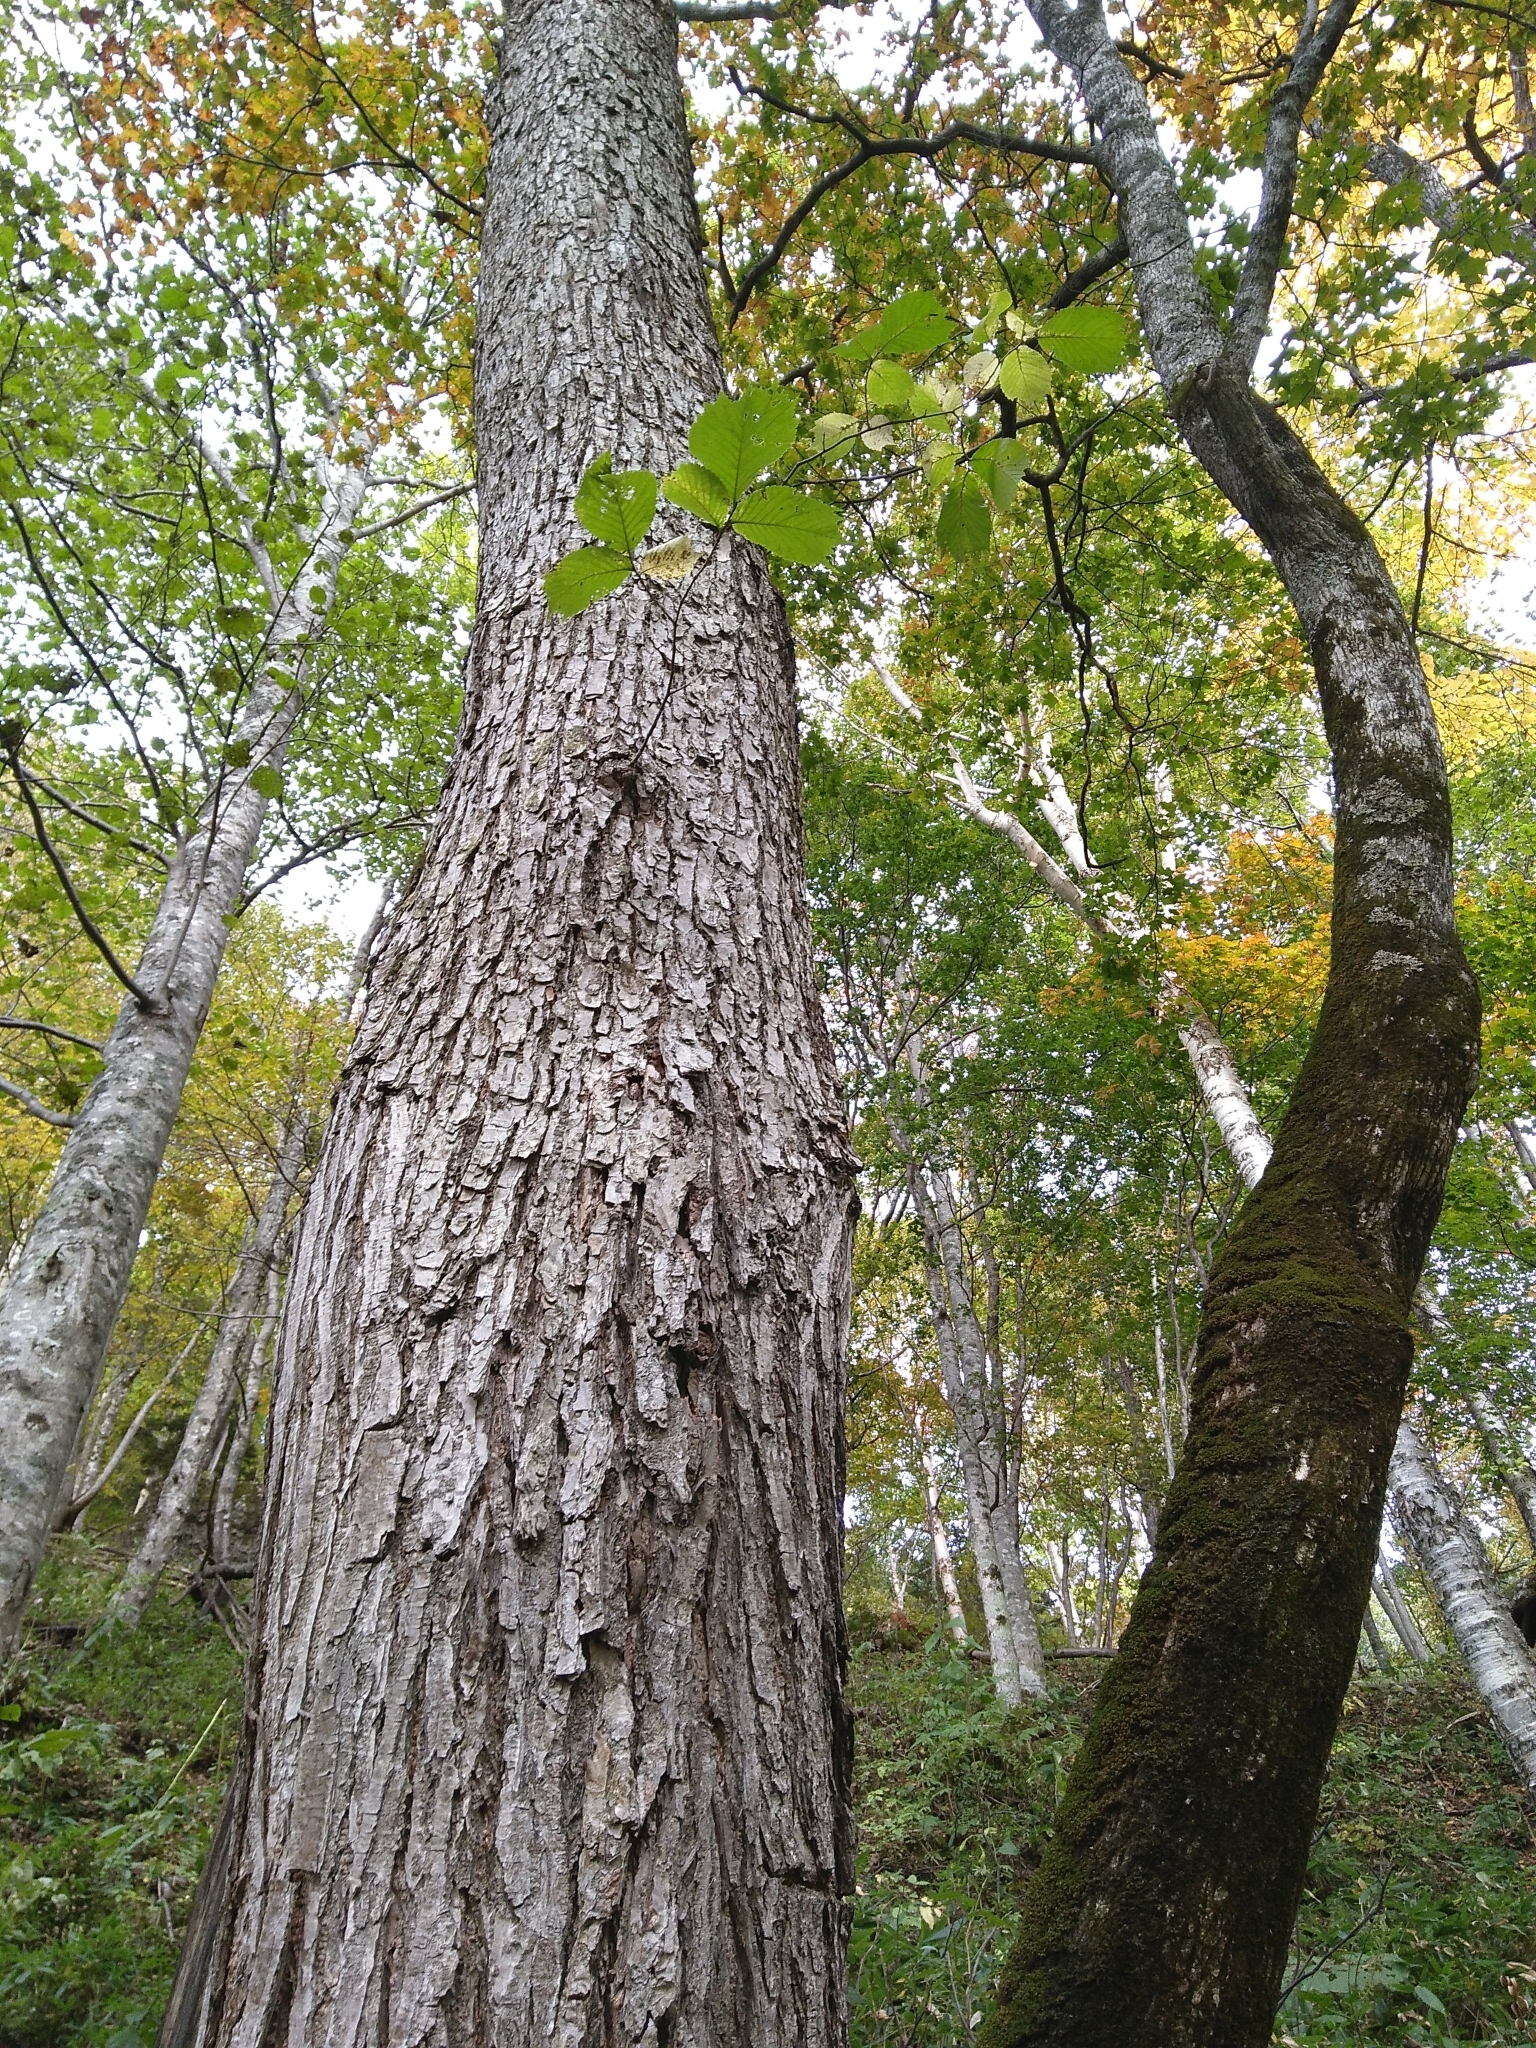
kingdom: Plantae
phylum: Tracheophyta
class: Magnoliopsida
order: Rosales
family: Ulmaceae
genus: Ulmus
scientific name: Ulmus laciniata
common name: Japanese elm
